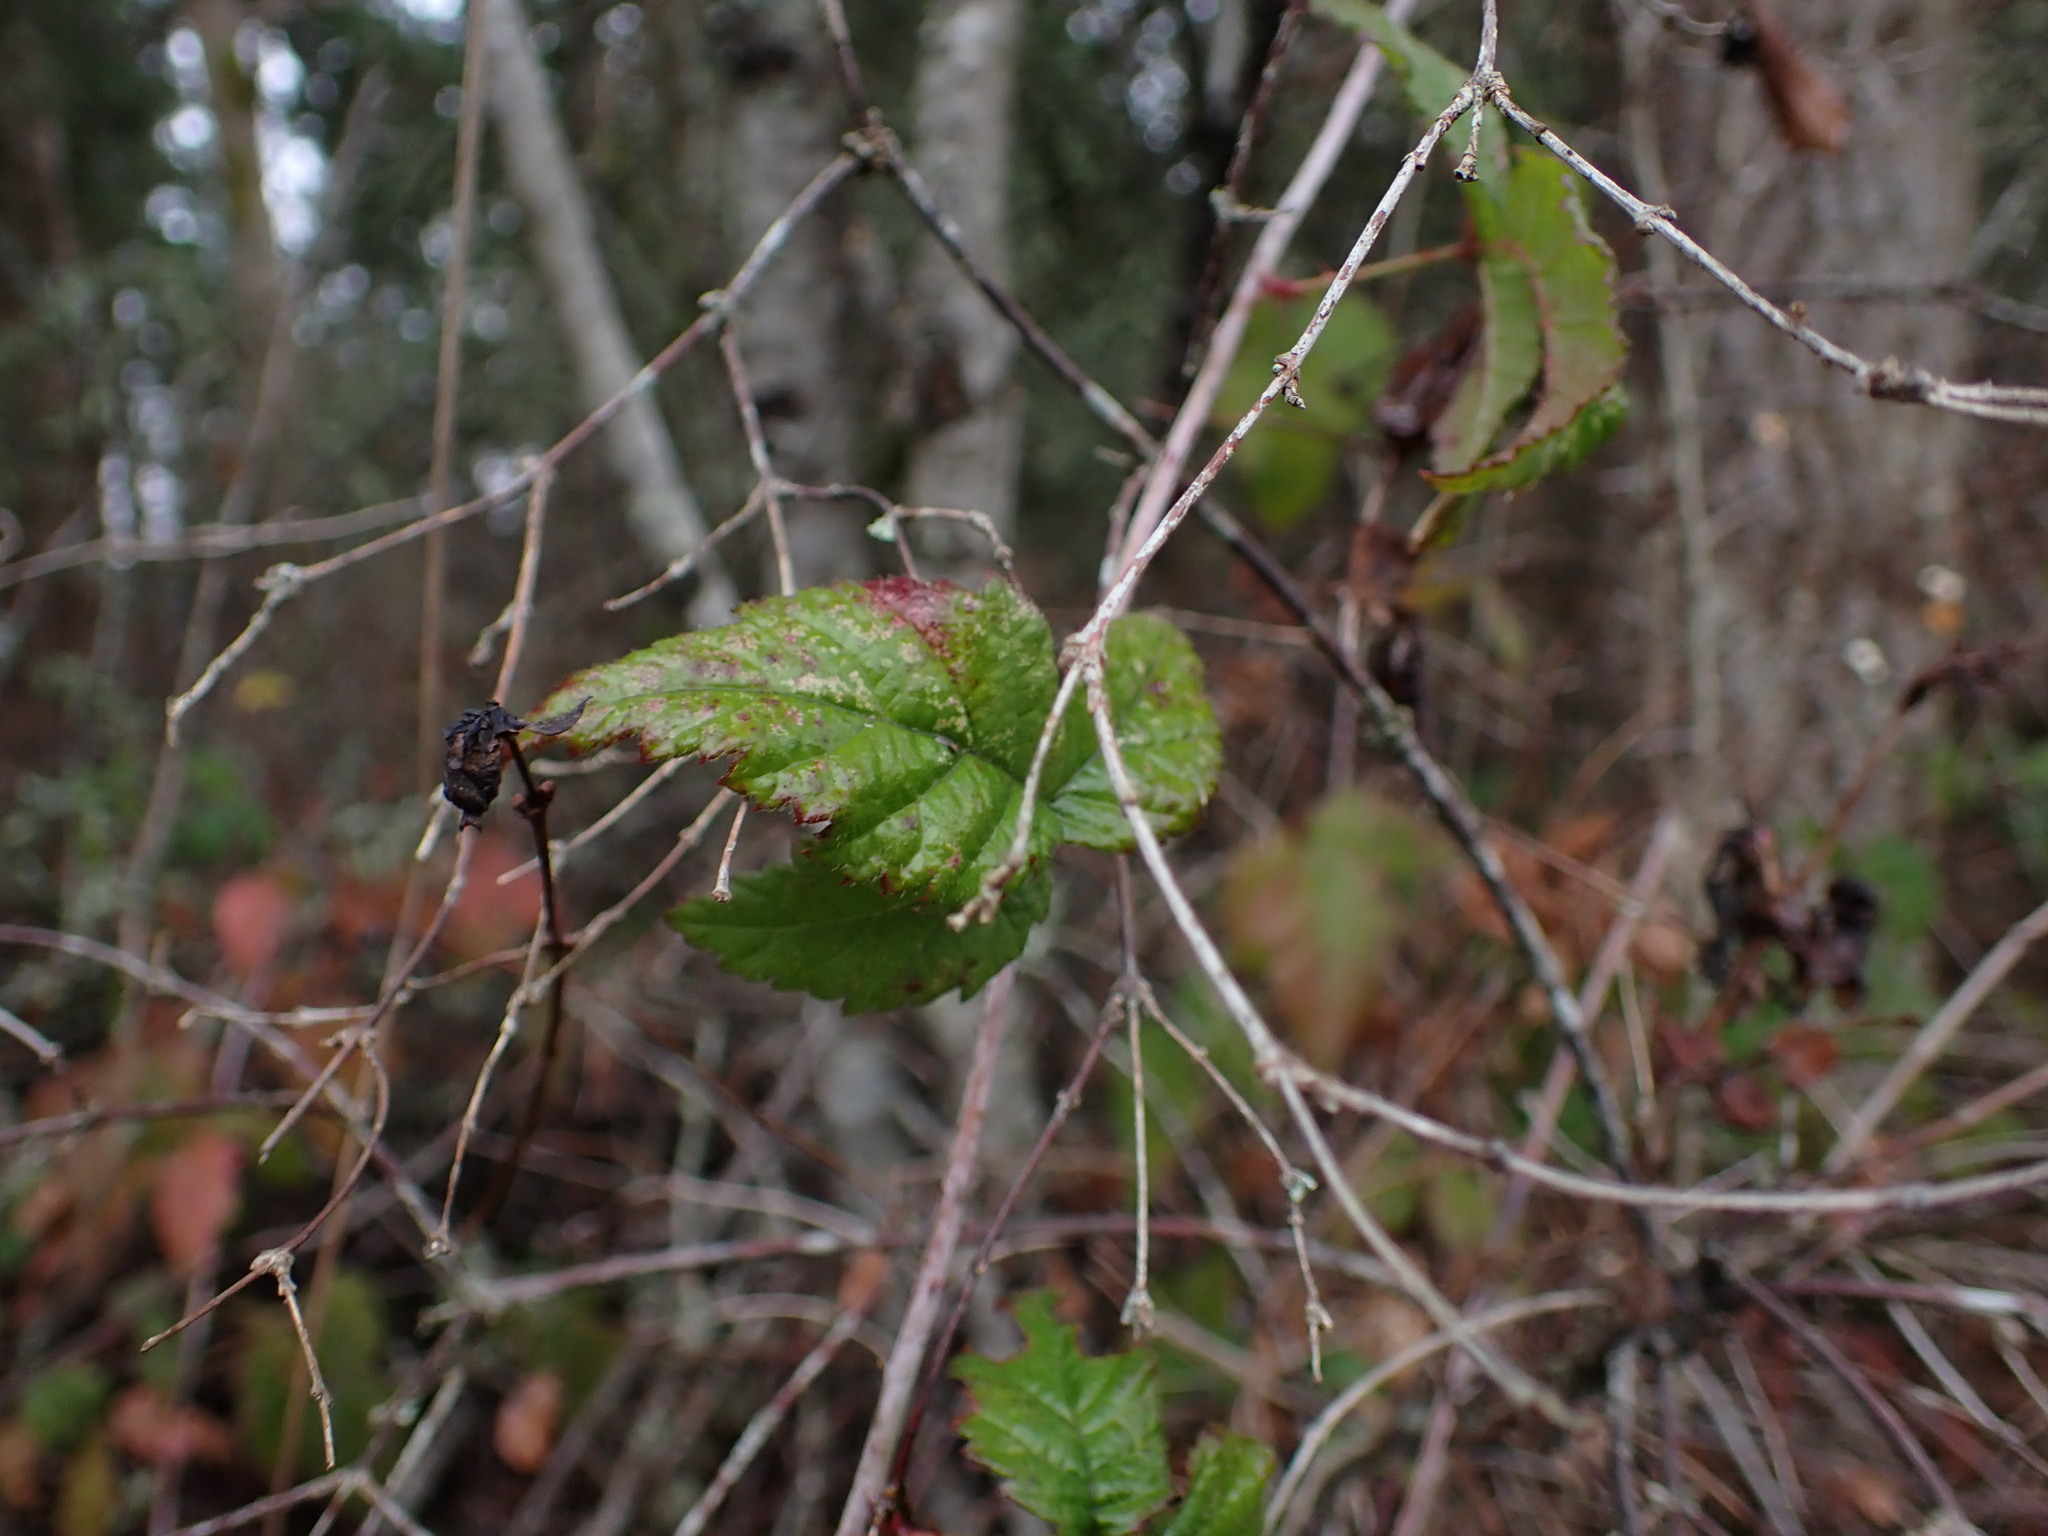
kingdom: Plantae
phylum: Tracheophyta
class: Magnoliopsida
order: Rosales
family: Rosaceae
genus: Rubus
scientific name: Rubus ursinus
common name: Pacific blackberry
